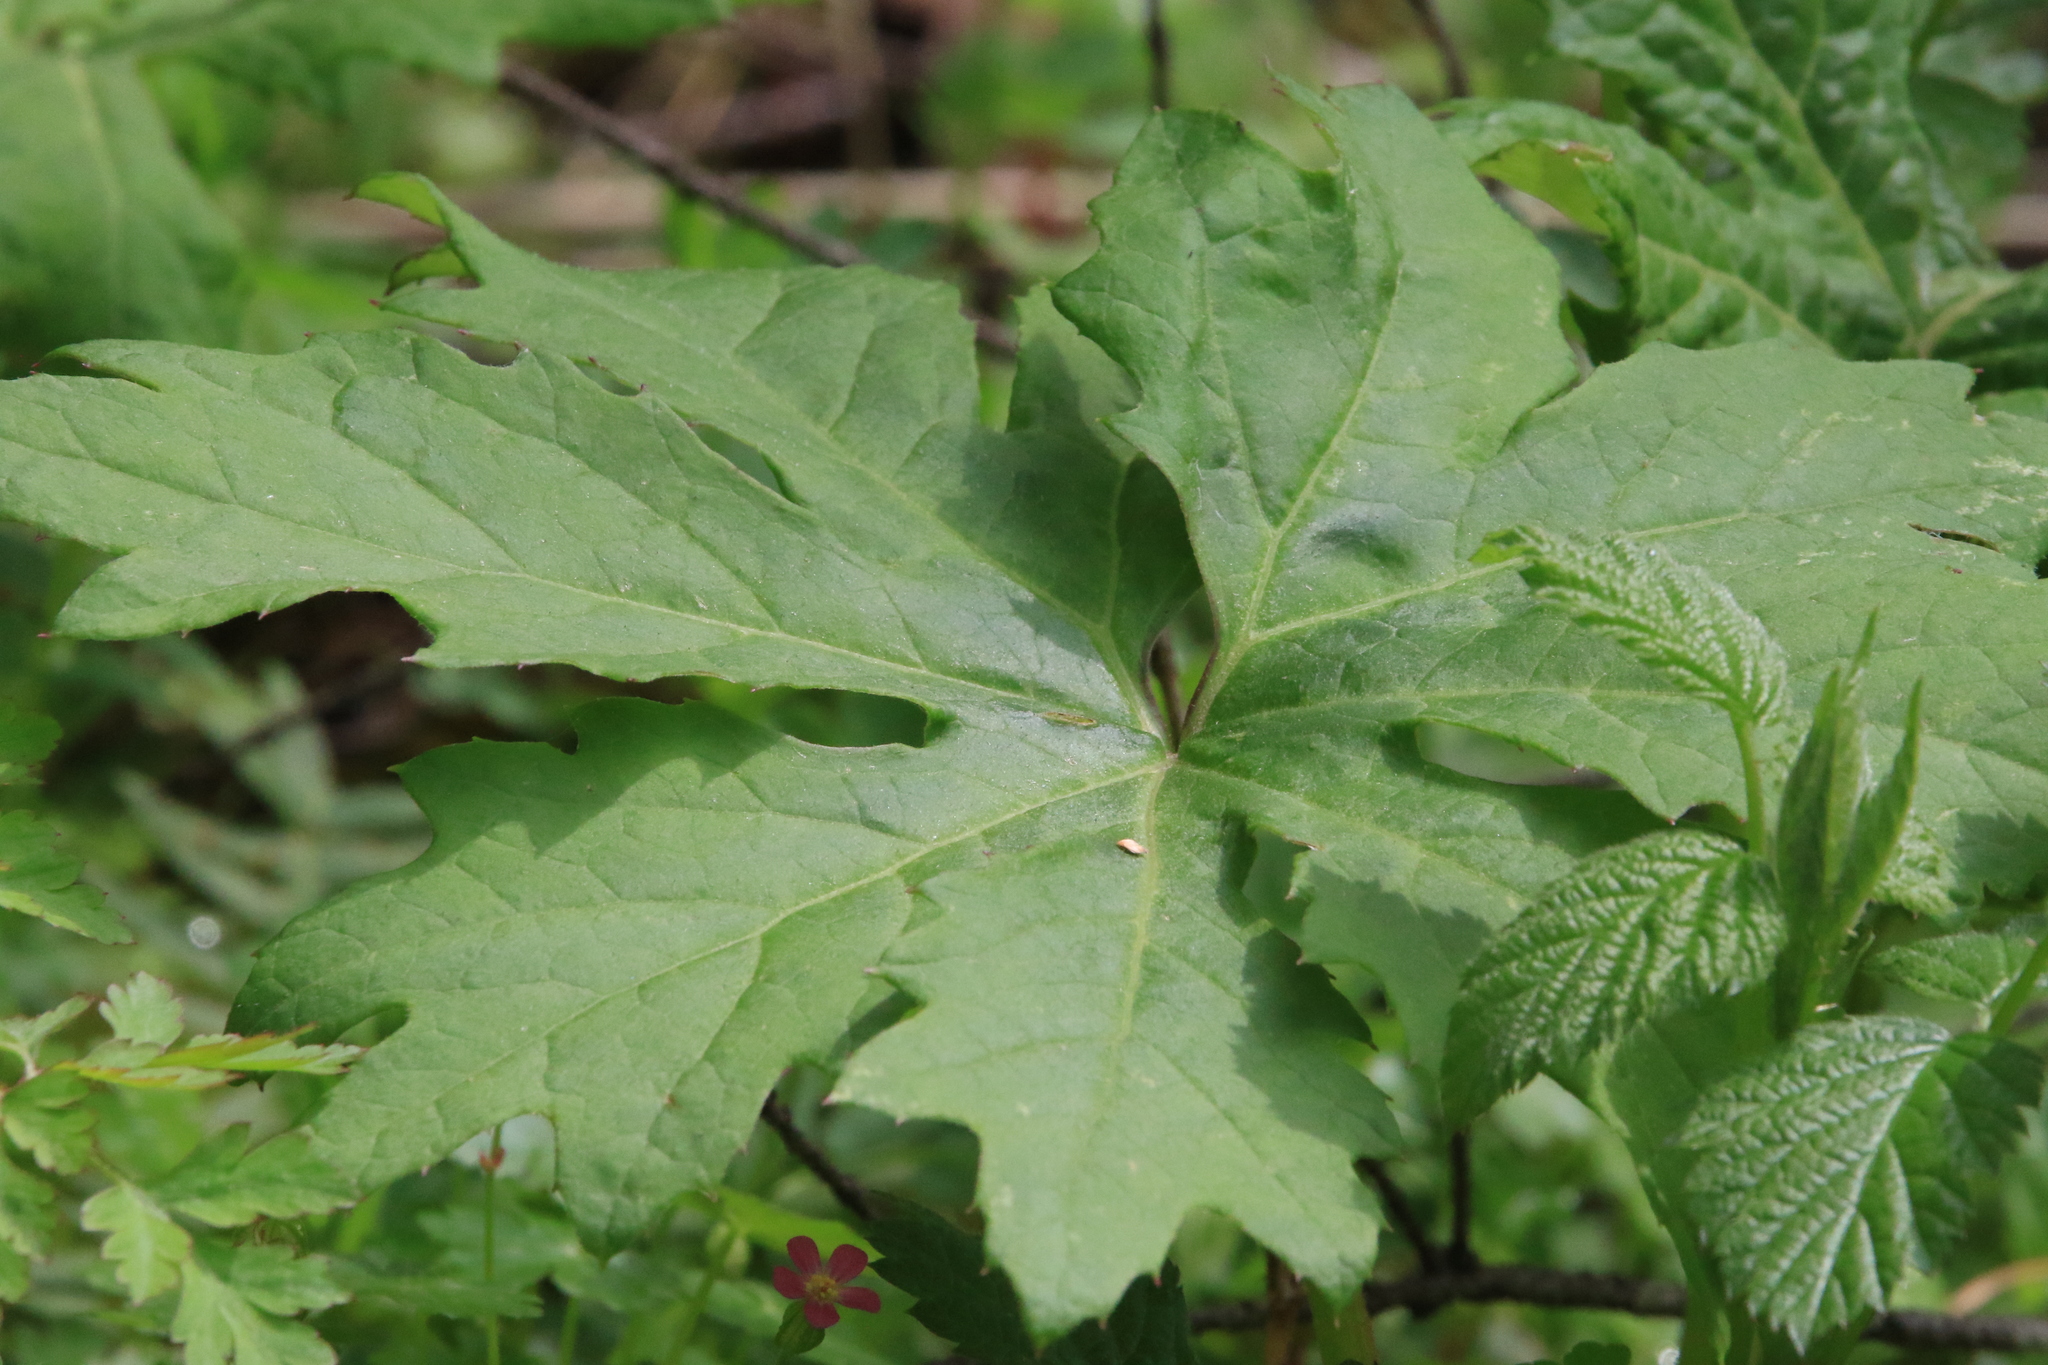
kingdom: Plantae
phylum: Tracheophyta
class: Magnoliopsida
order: Asterales
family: Asteraceae
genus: Petasites
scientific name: Petasites frigidus
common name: Arctic butterbur
